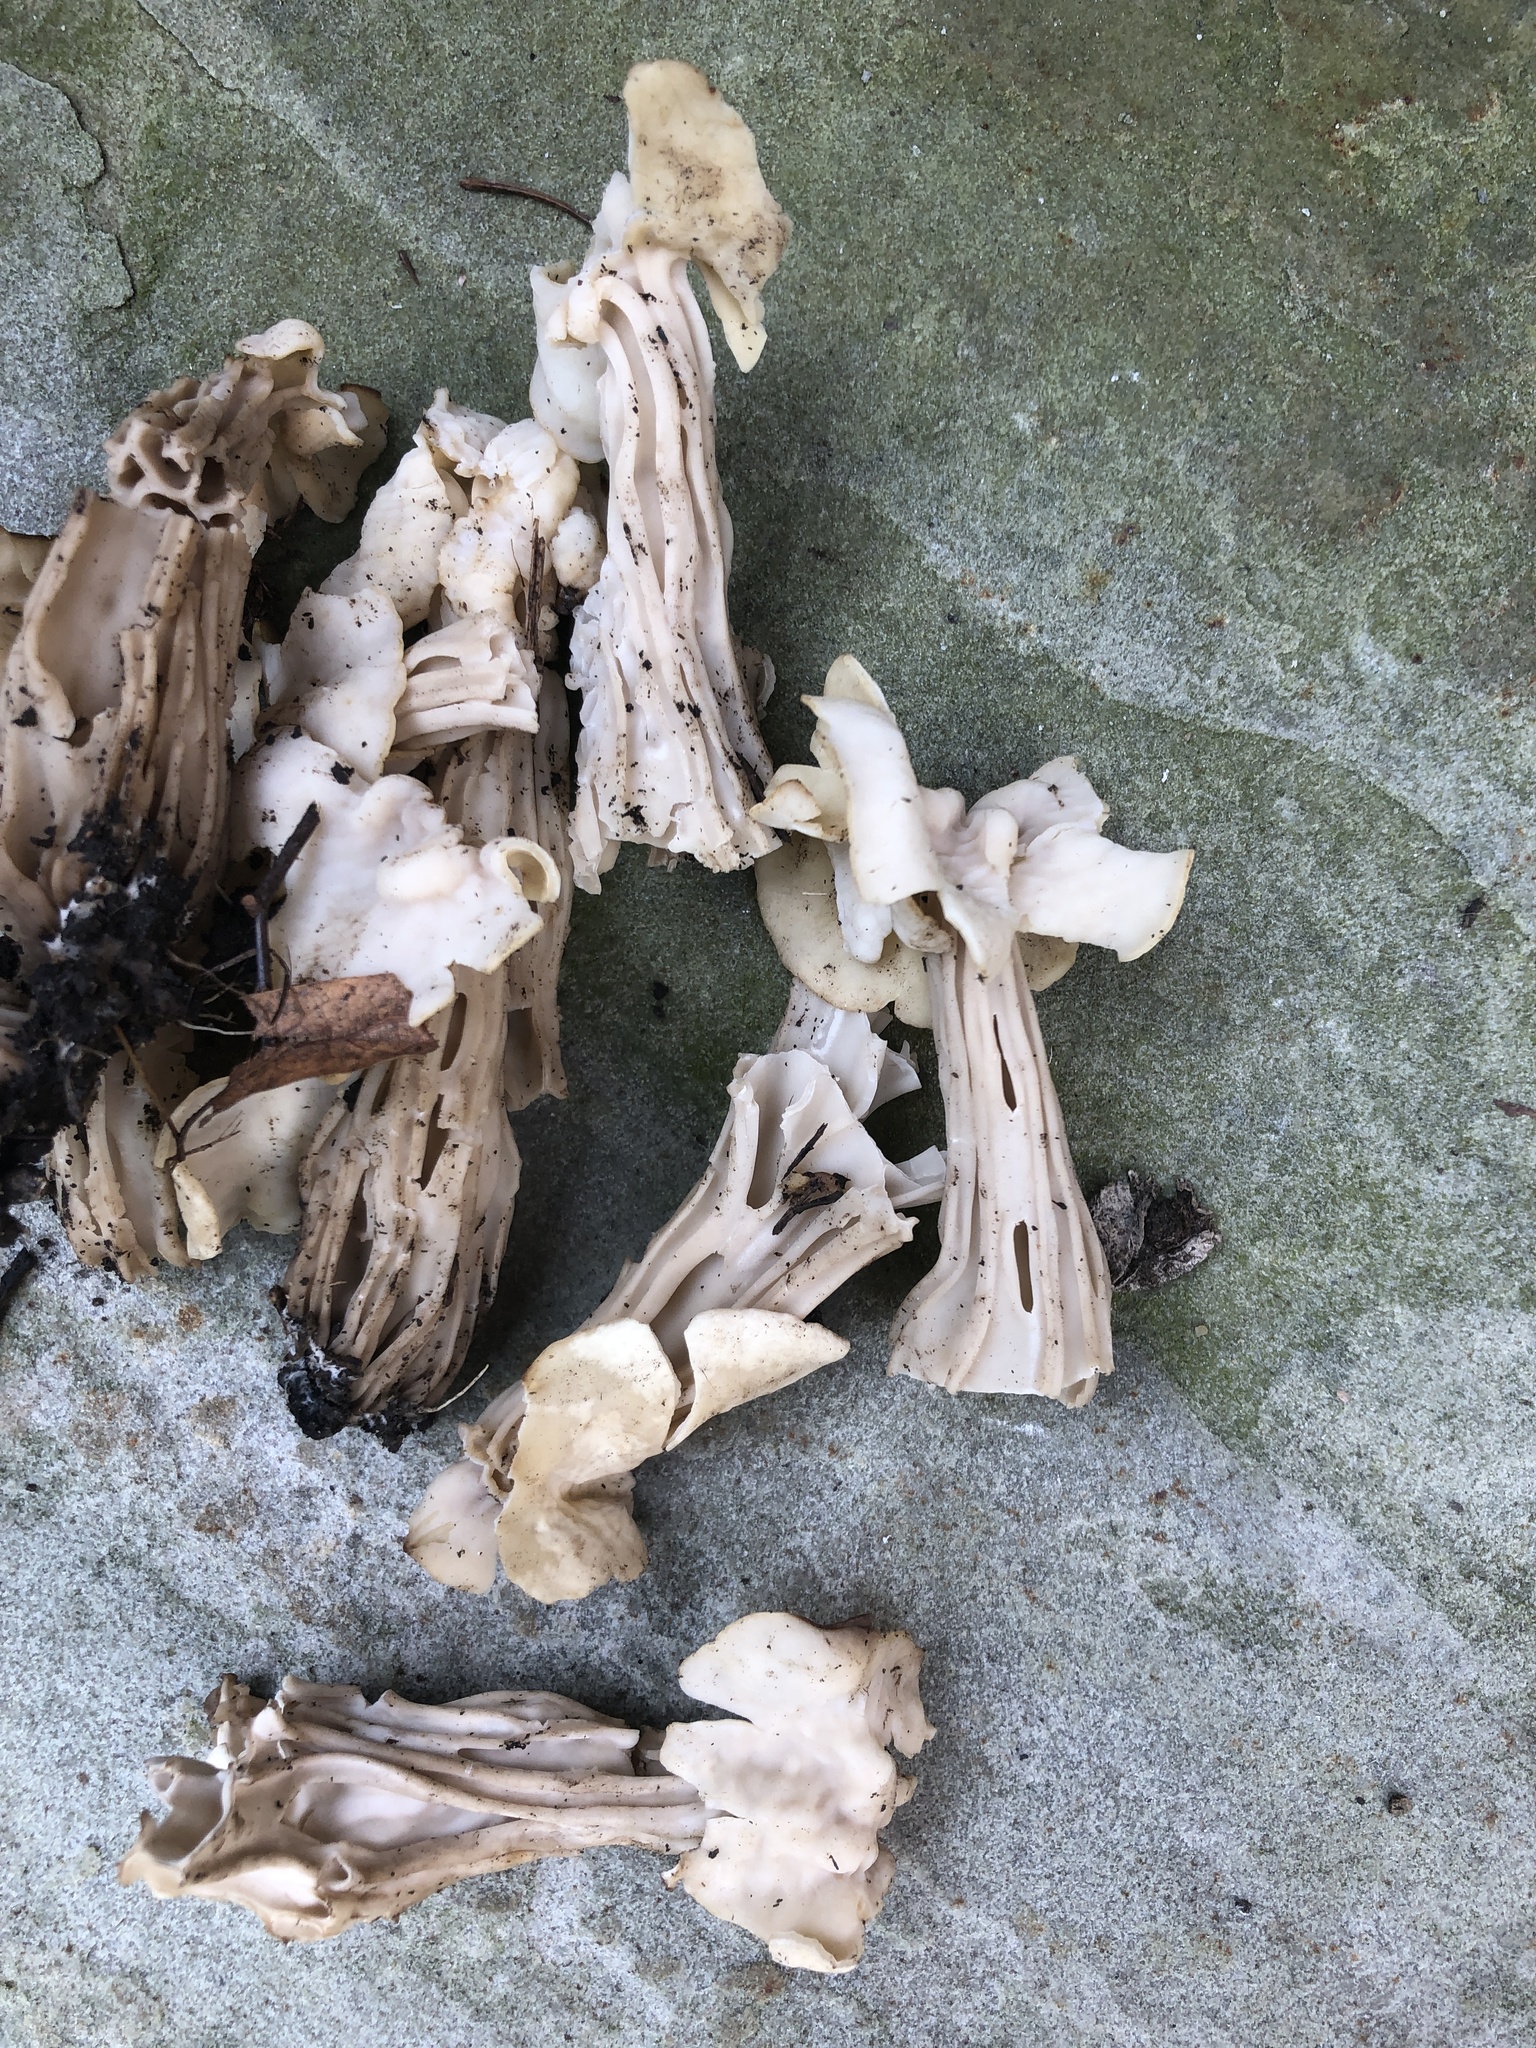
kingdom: Fungi
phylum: Ascomycota
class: Pezizomycetes
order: Pezizales
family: Helvellaceae
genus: Helvella
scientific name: Helvella crispa
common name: White saddle
